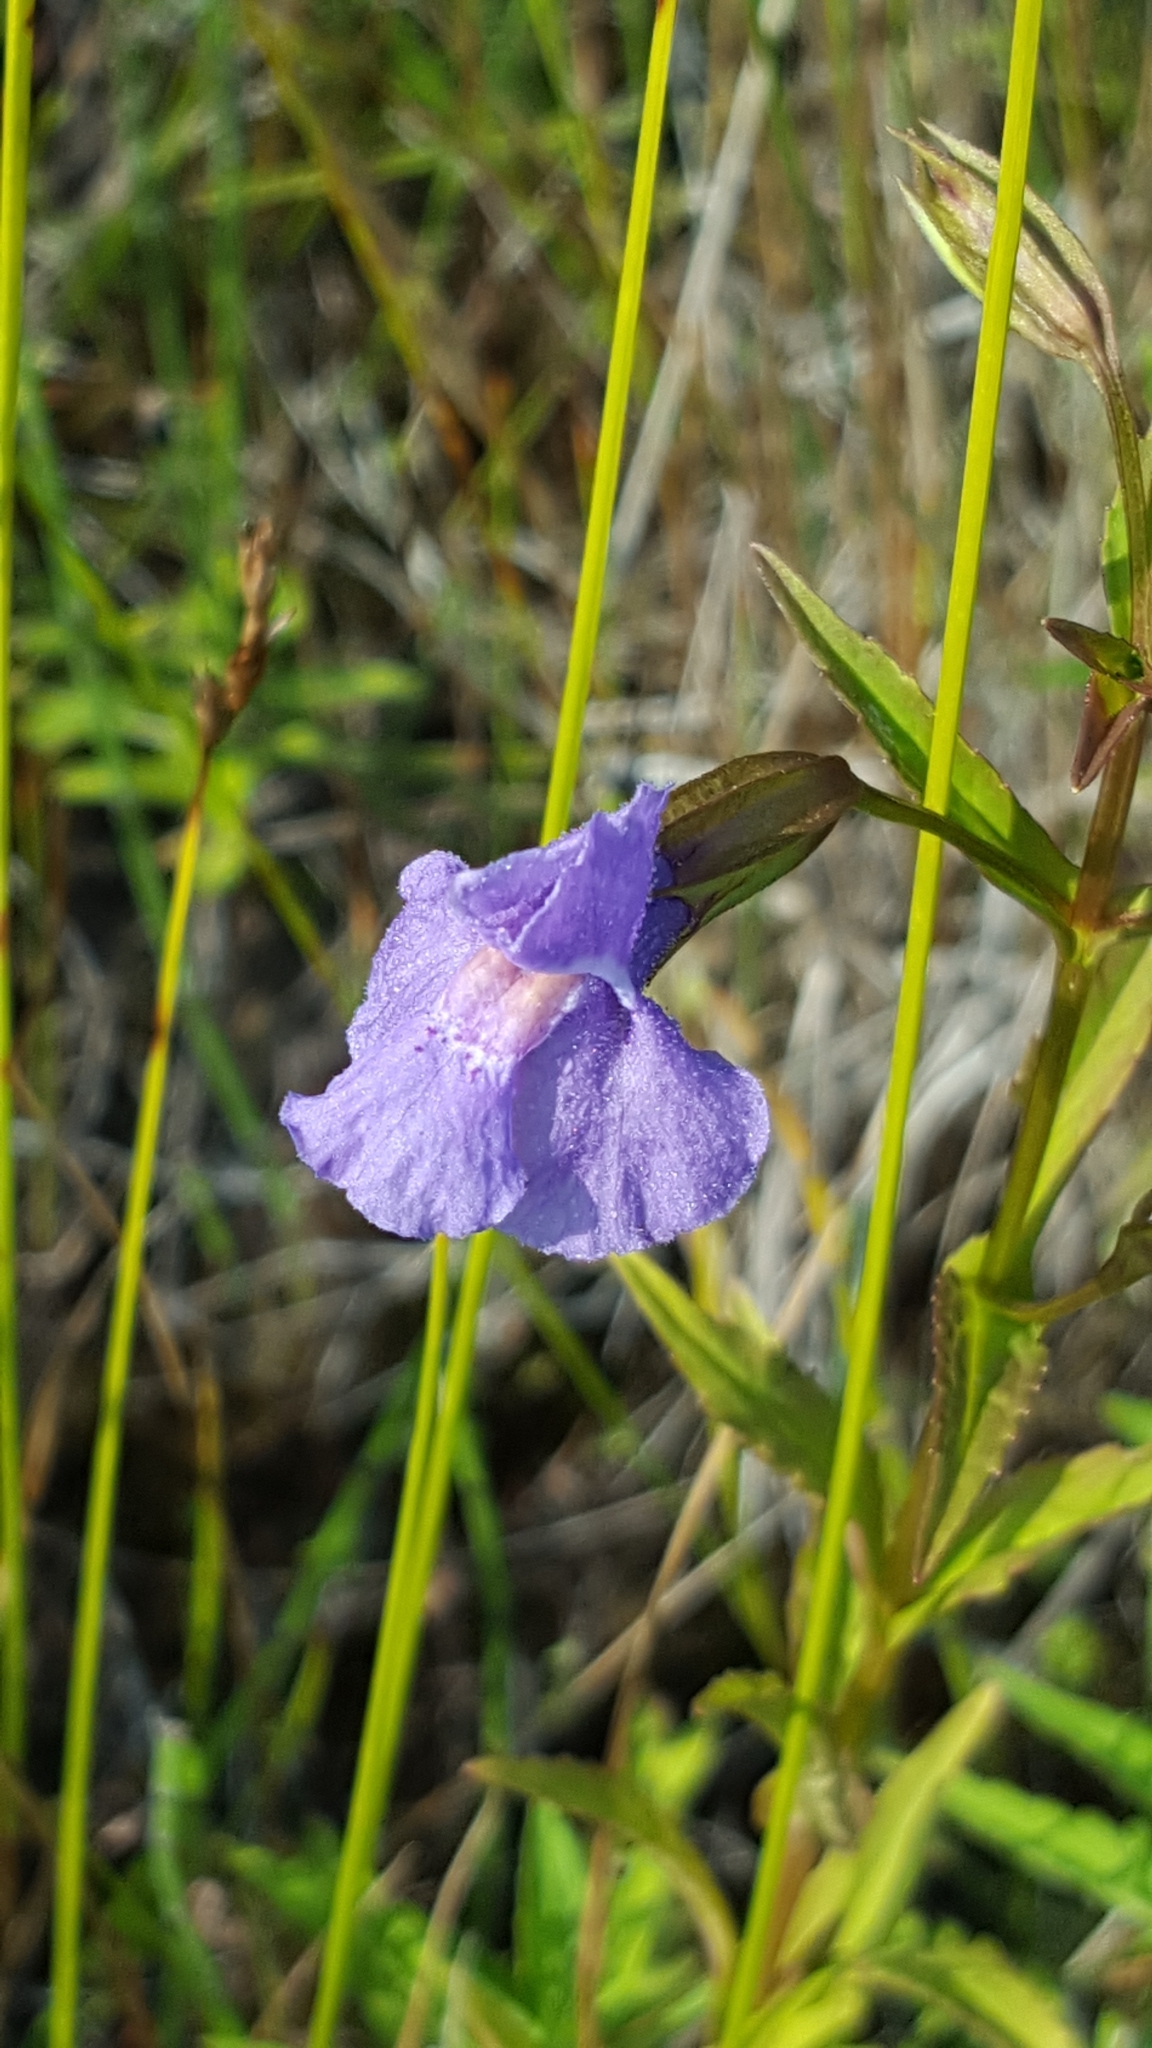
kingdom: Plantae
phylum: Tracheophyta
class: Magnoliopsida
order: Lamiales
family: Phrymaceae
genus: Mimulus
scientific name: Mimulus ringens
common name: Allegheny monkeyflower
